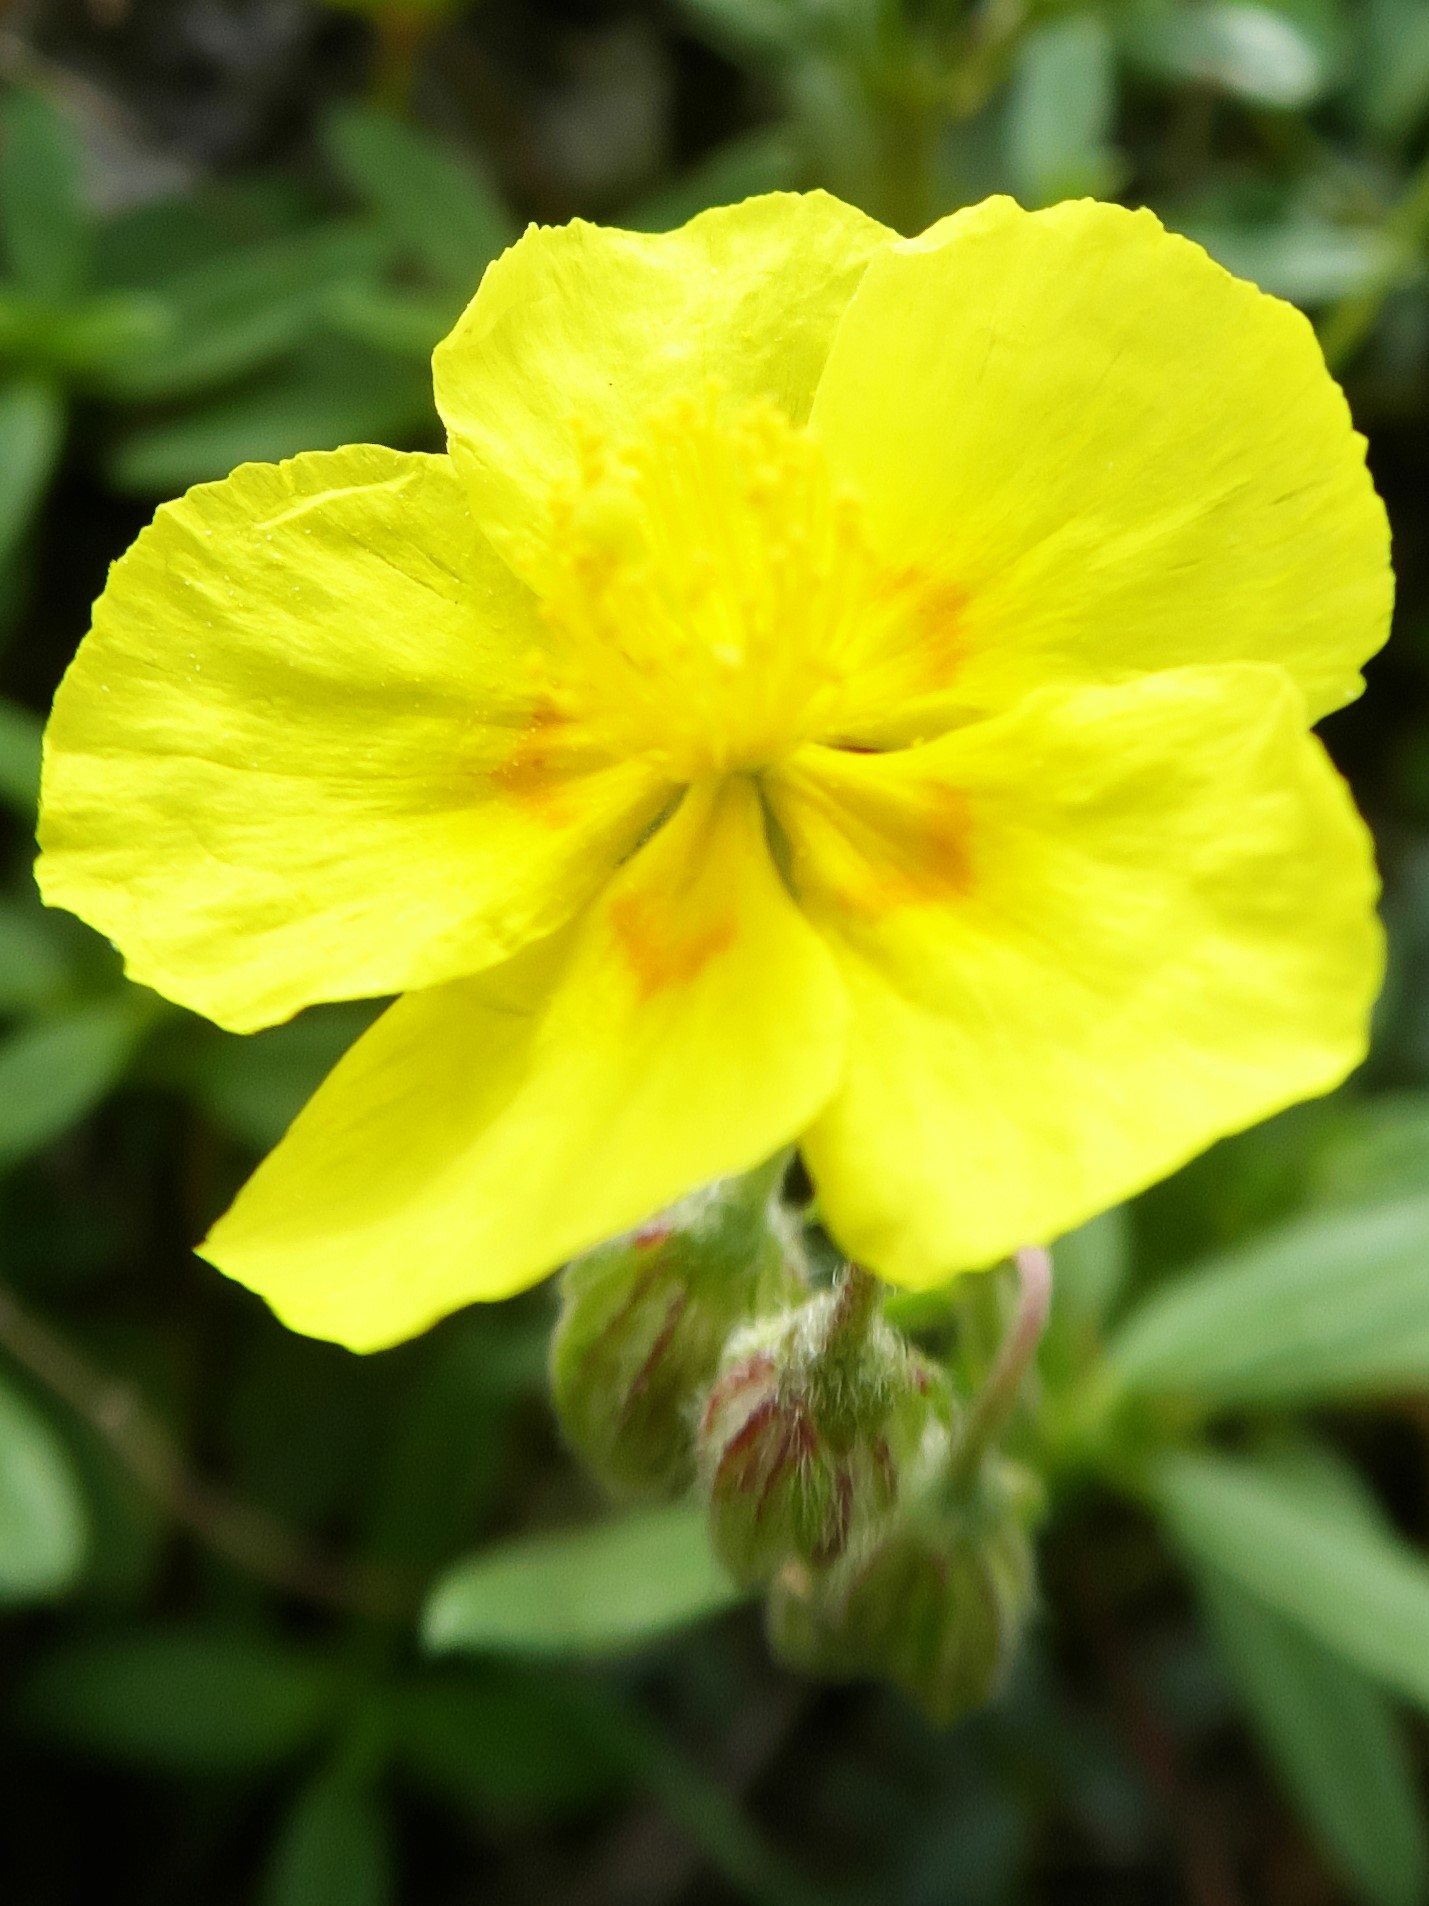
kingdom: Plantae
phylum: Tracheophyta
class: Magnoliopsida
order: Malvales
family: Cistaceae
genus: Helianthemum
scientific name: Helianthemum nummularium
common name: Common rock-rose
